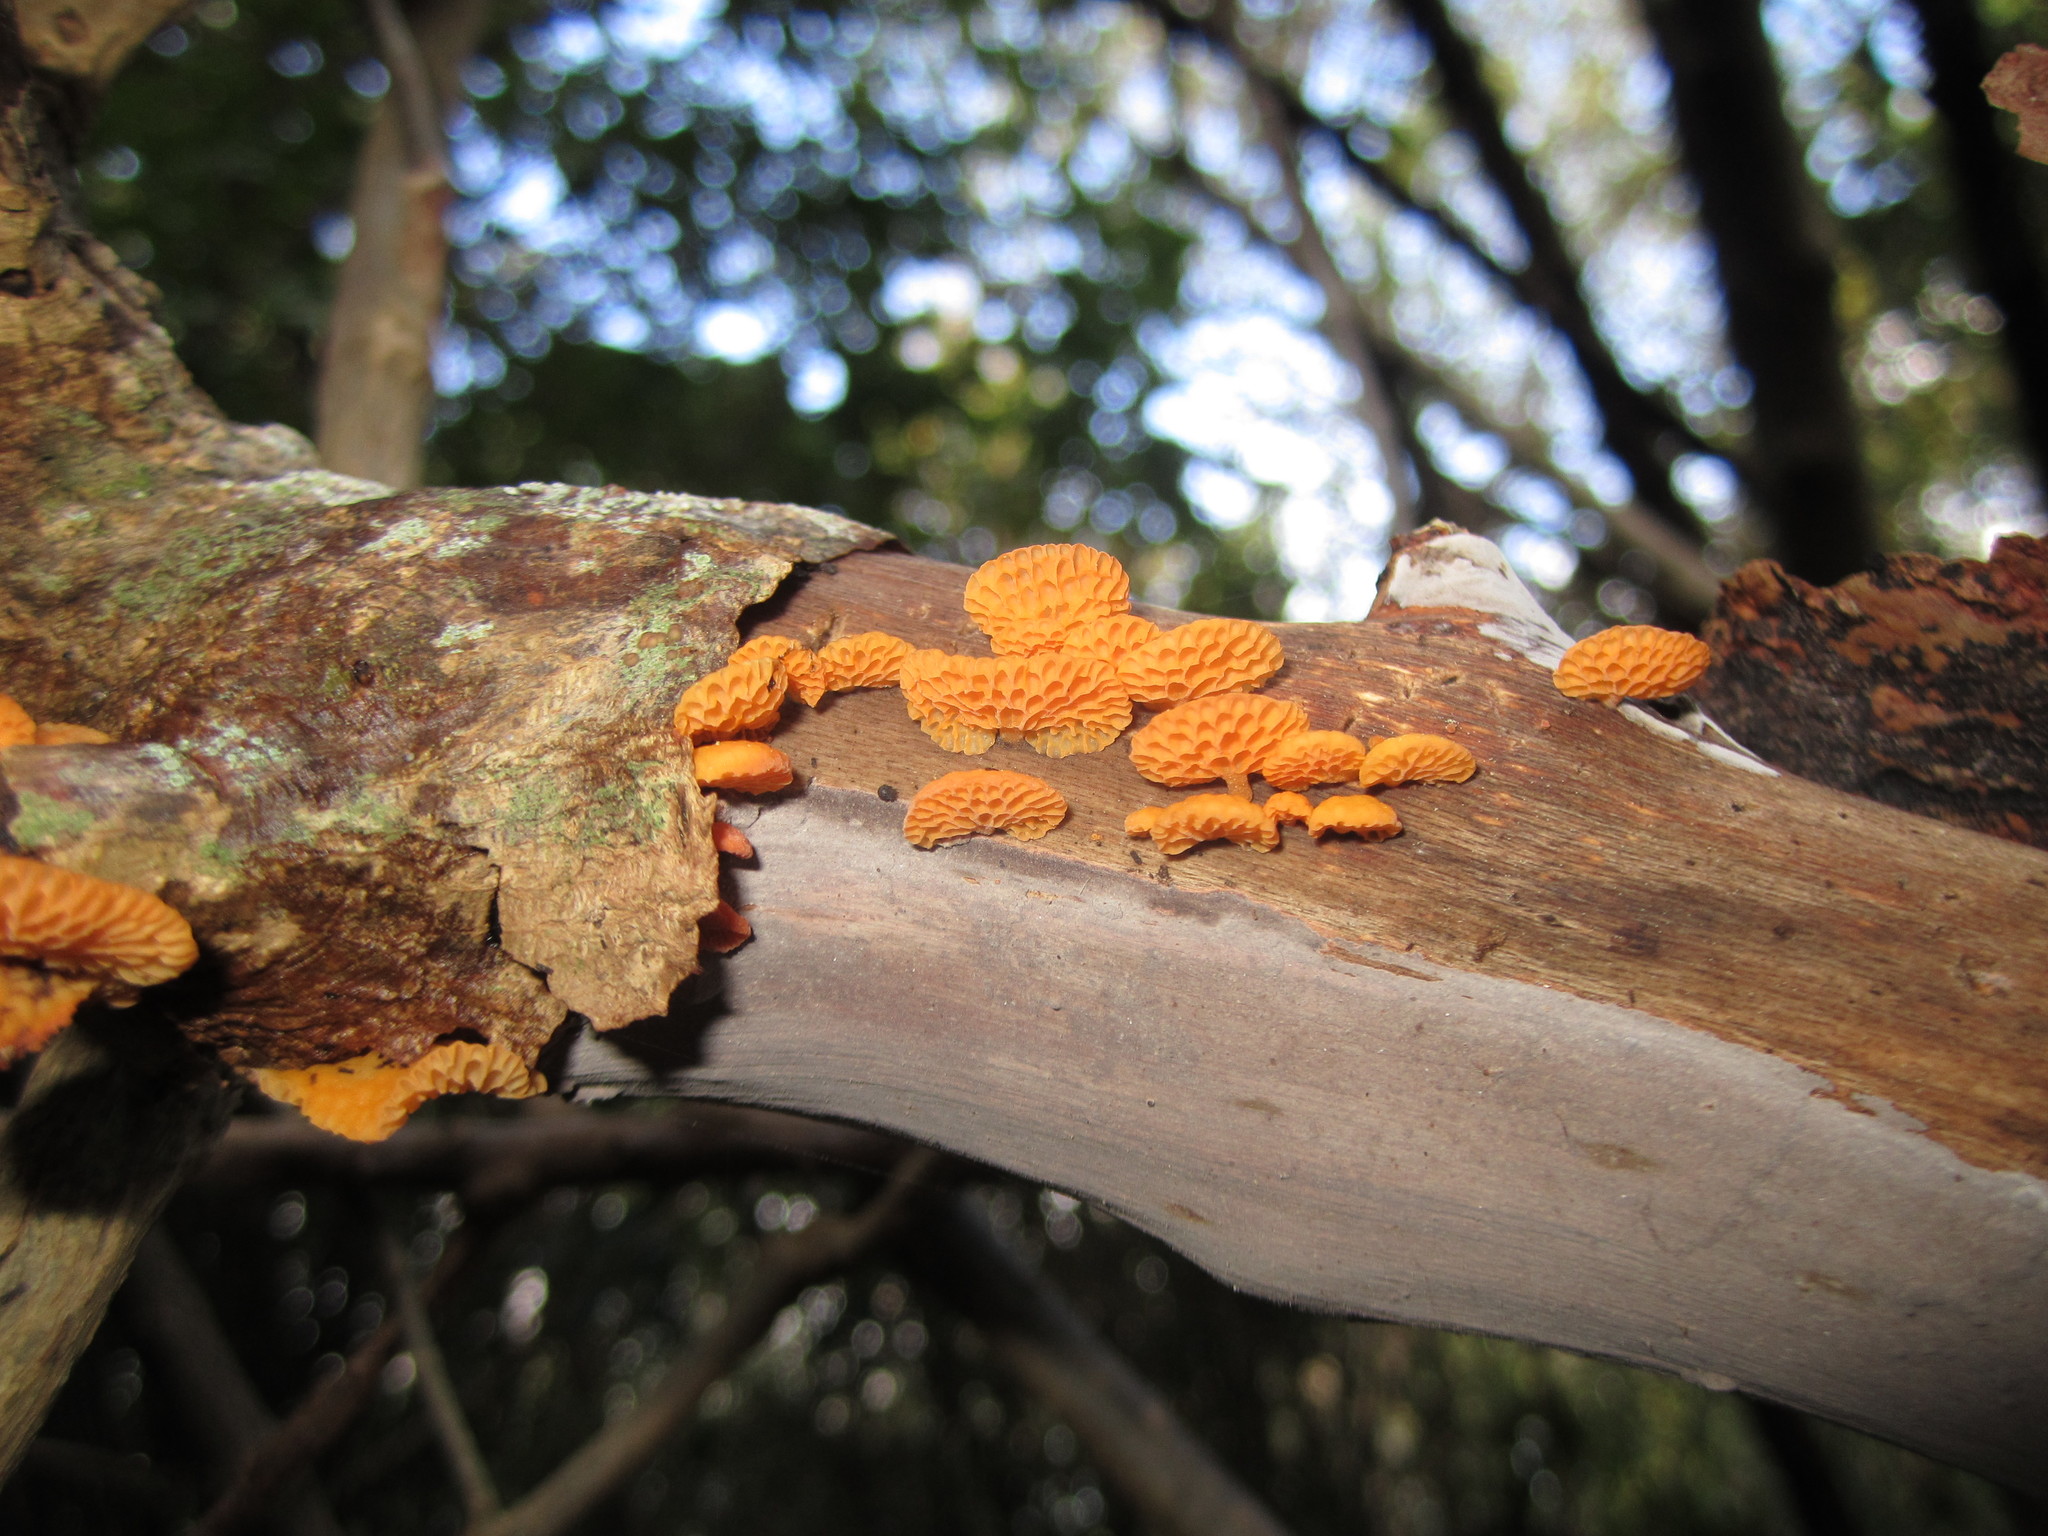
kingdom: Fungi
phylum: Basidiomycota
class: Agaricomycetes
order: Agaricales
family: Mycenaceae
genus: Favolaschia
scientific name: Favolaschia claudopus
